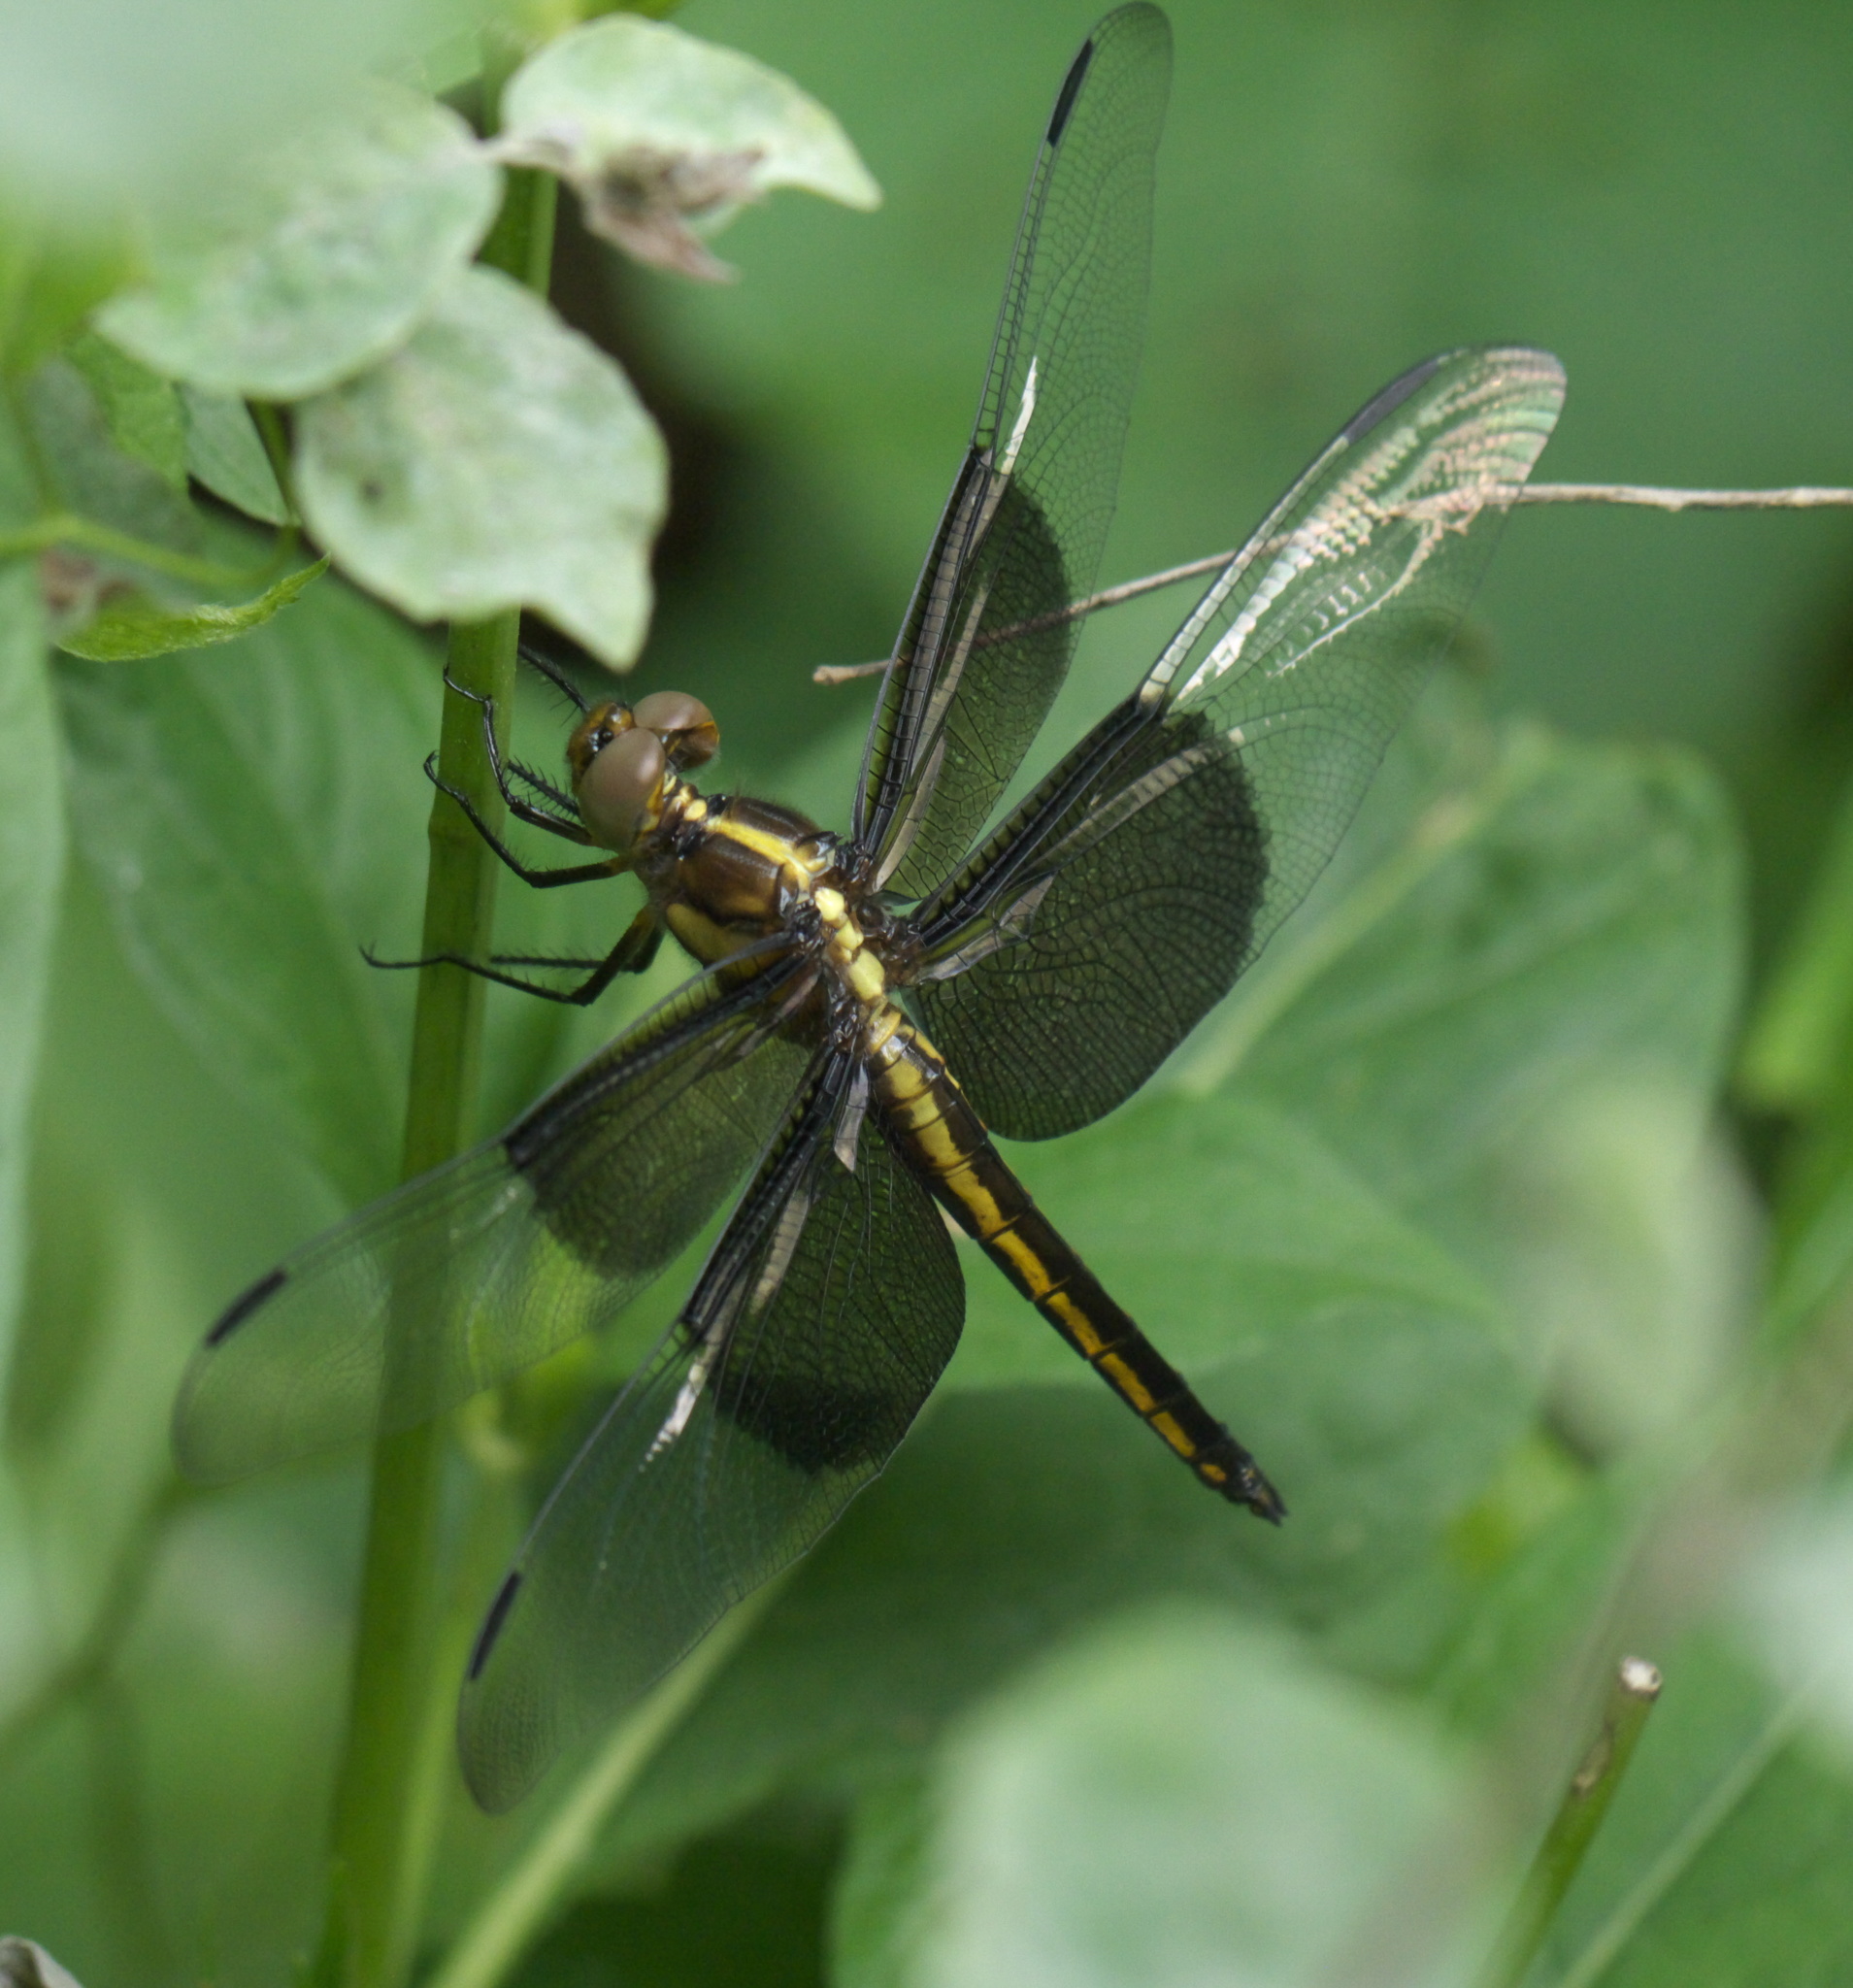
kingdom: Animalia
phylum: Arthropoda
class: Insecta
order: Odonata
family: Libellulidae
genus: Libellula
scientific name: Libellula luctuosa
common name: Widow skimmer
